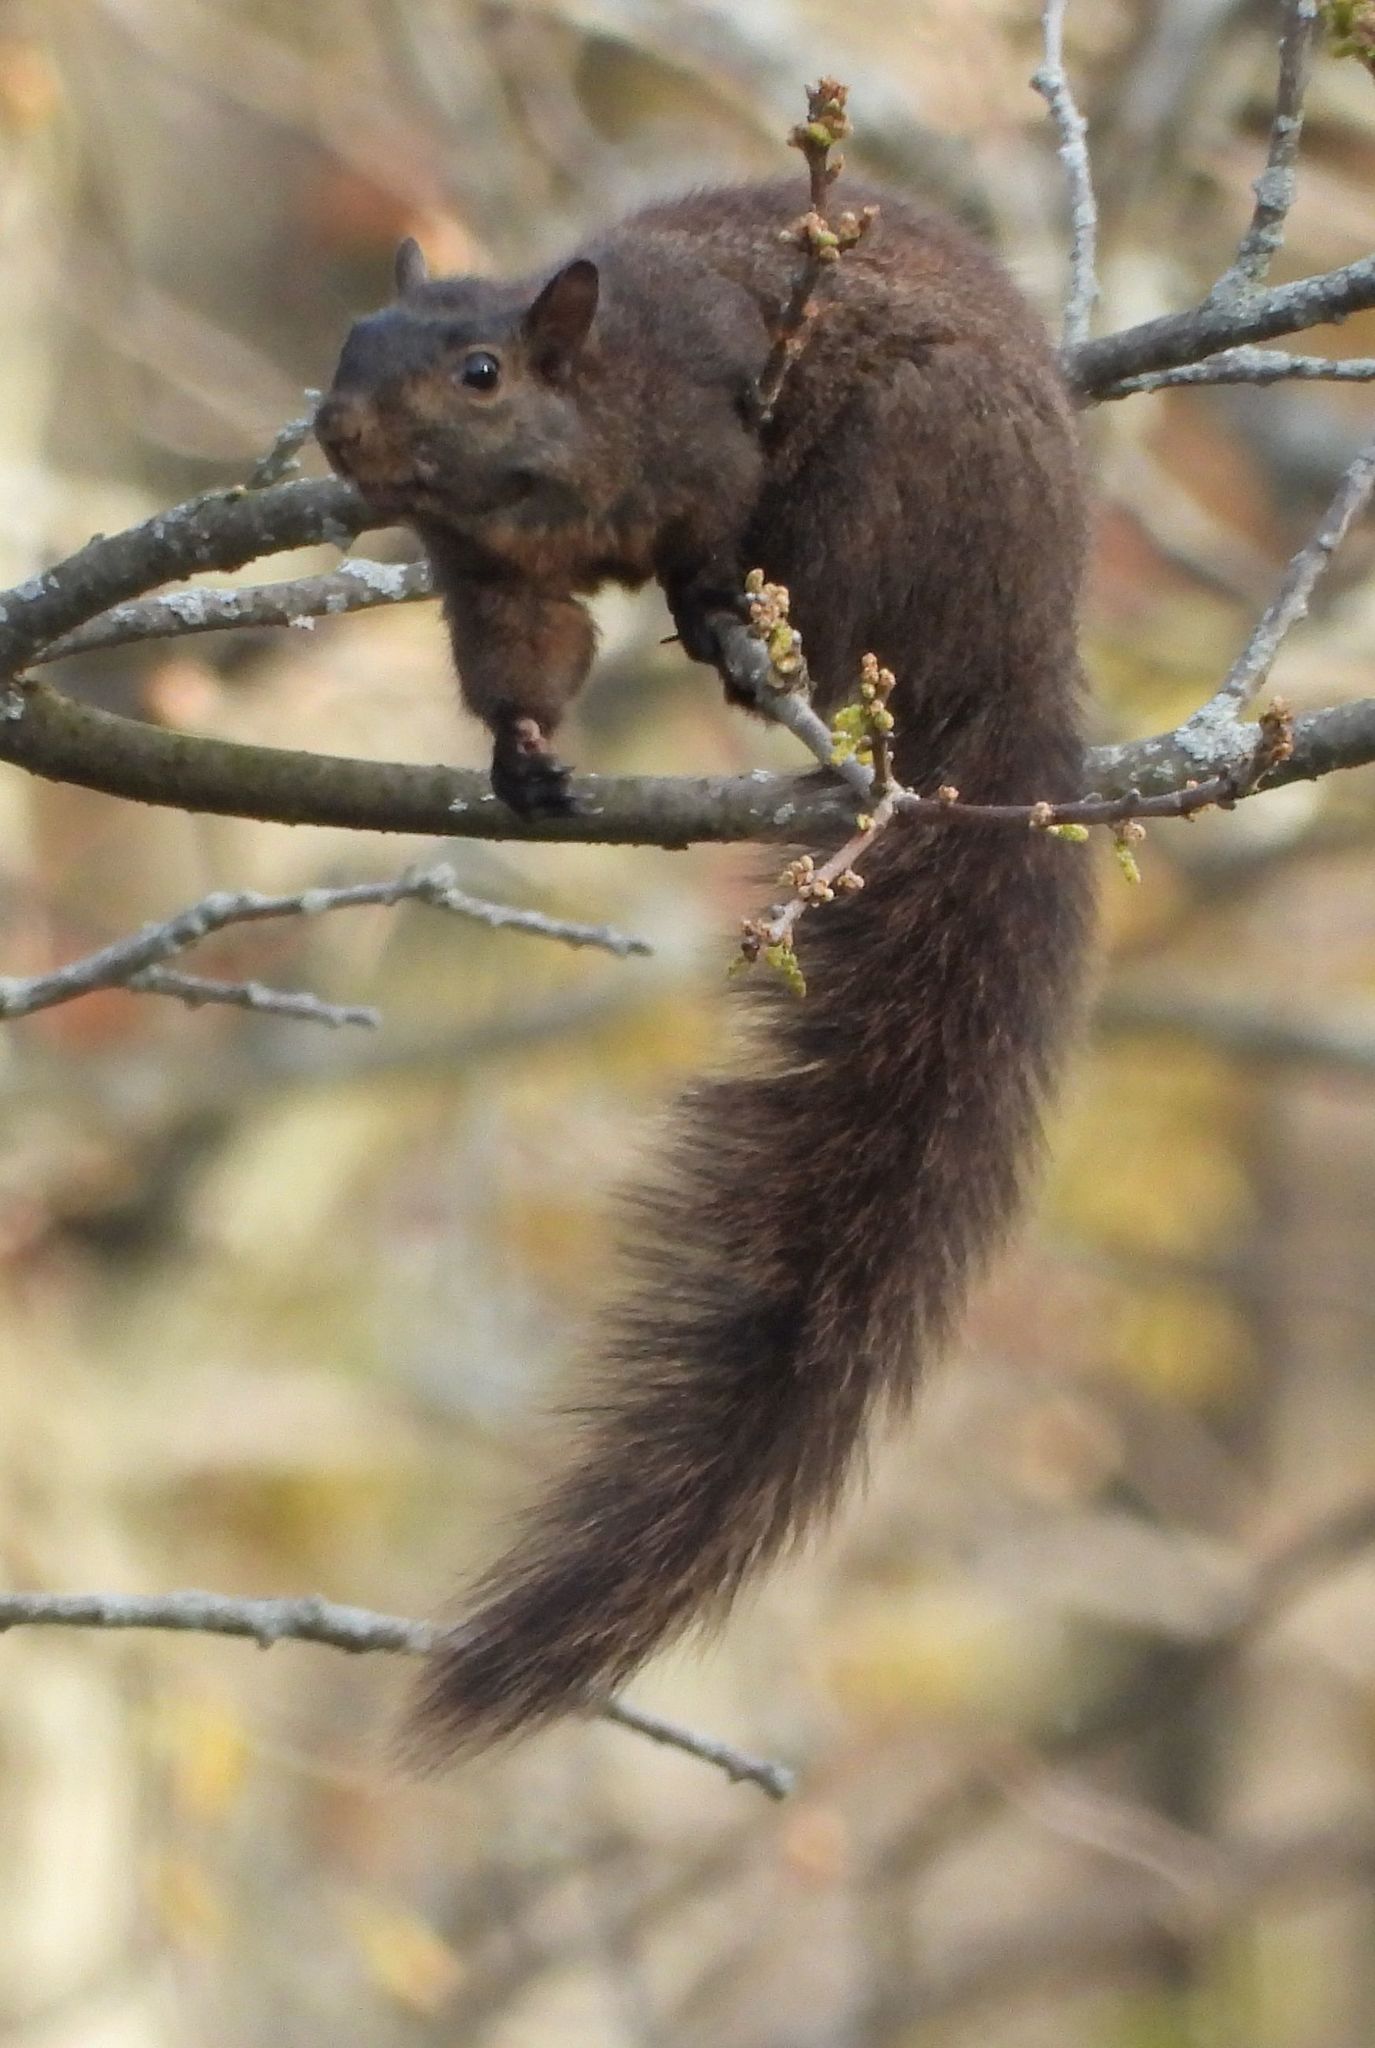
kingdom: Animalia
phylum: Chordata
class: Mammalia
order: Rodentia
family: Sciuridae
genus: Sciurus
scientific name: Sciurus carolinensis
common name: Eastern gray squirrel
